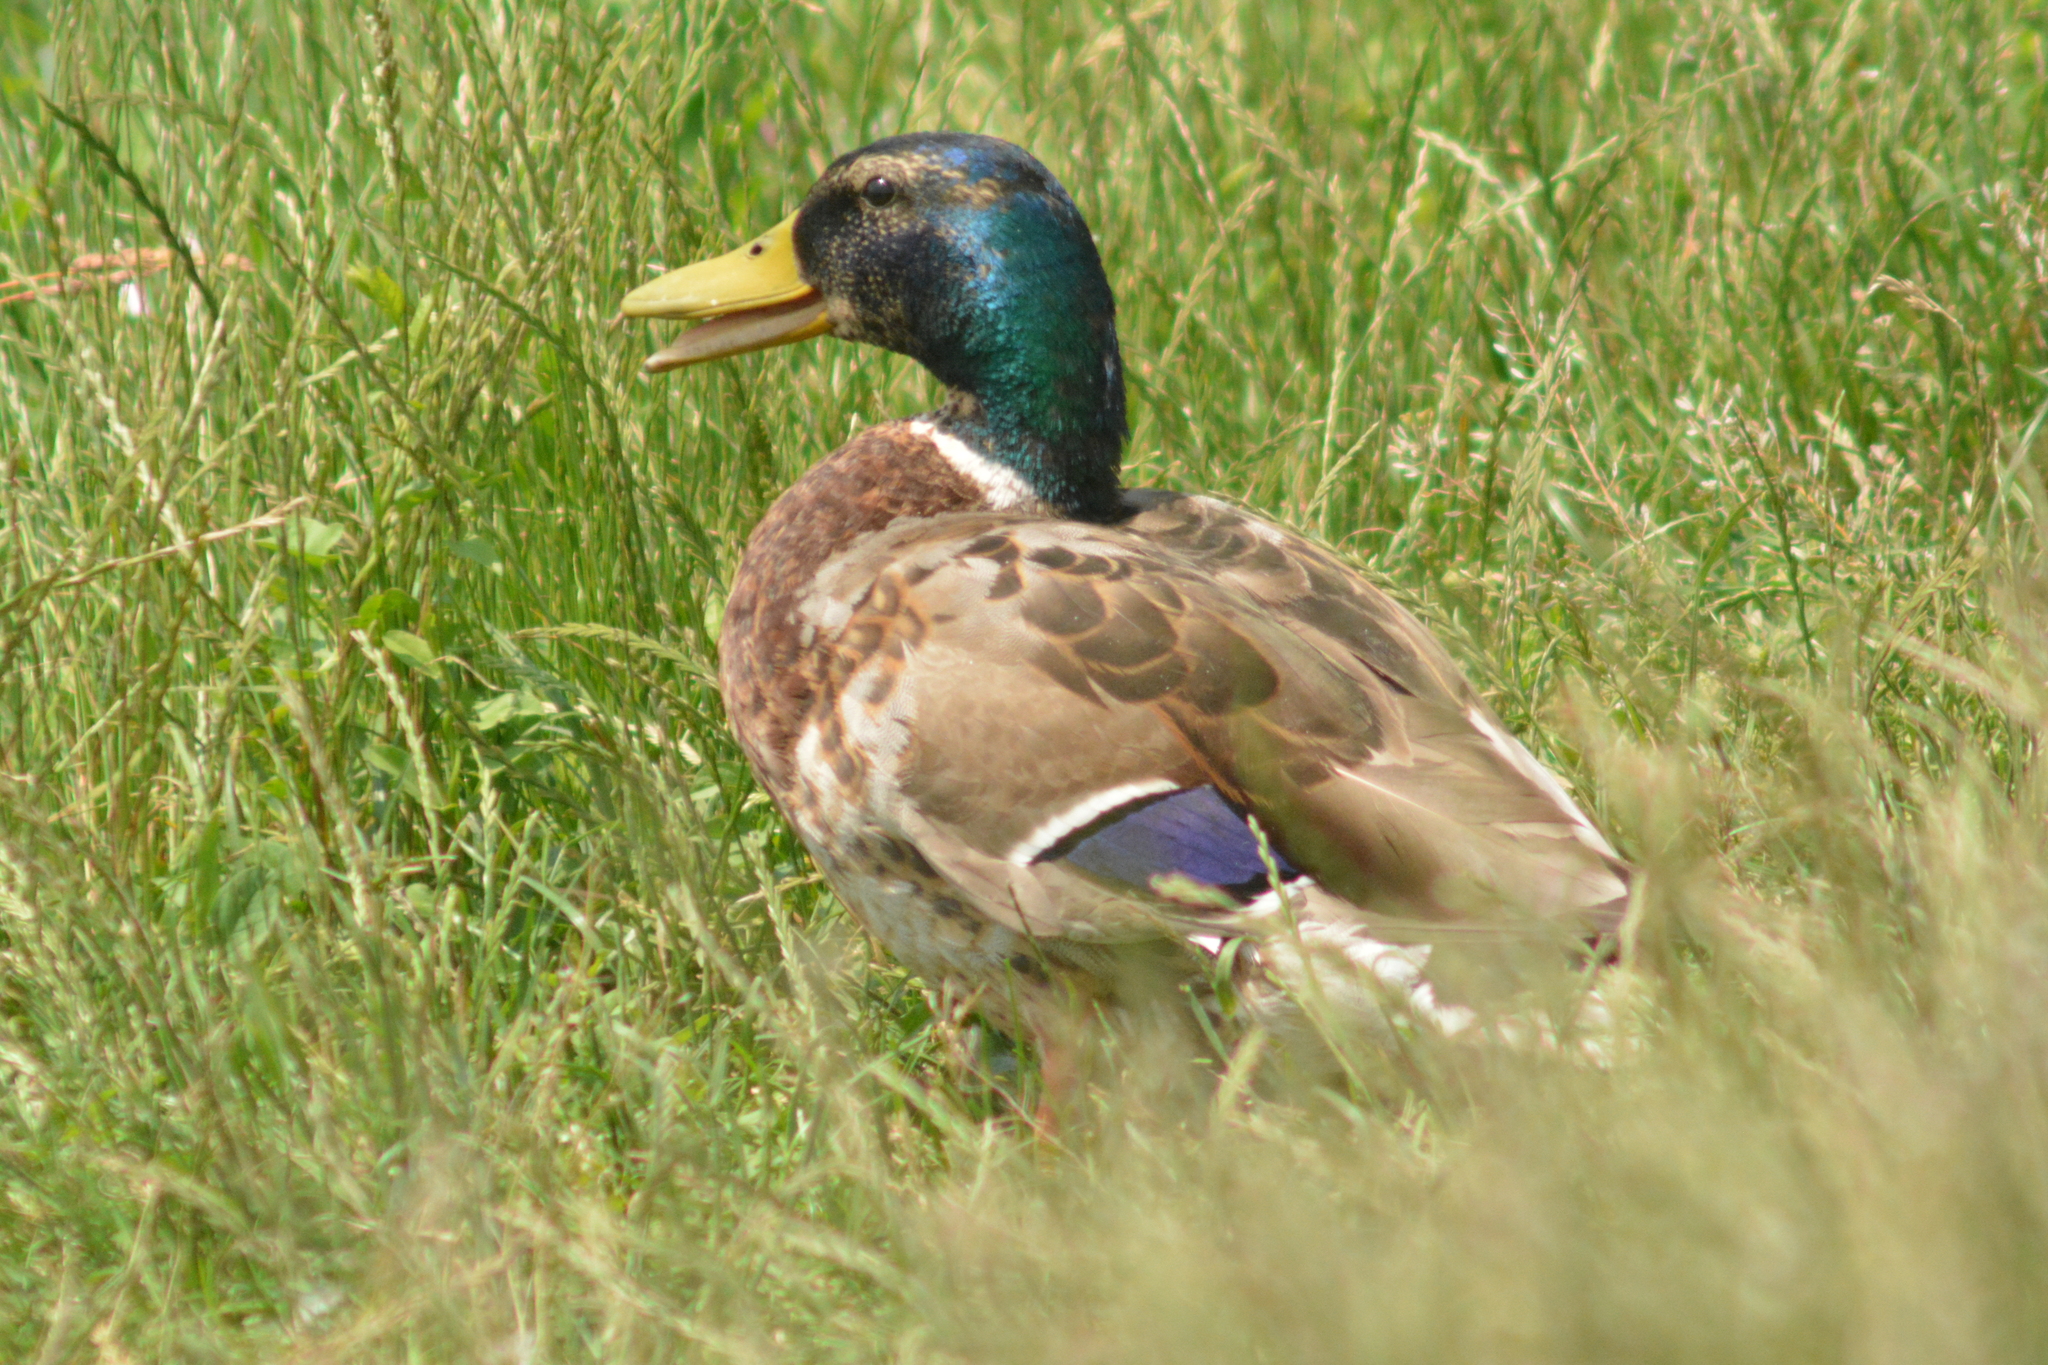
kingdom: Animalia
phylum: Chordata
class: Aves
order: Anseriformes
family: Anatidae
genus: Anas
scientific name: Anas platyrhynchos
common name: Mallard
